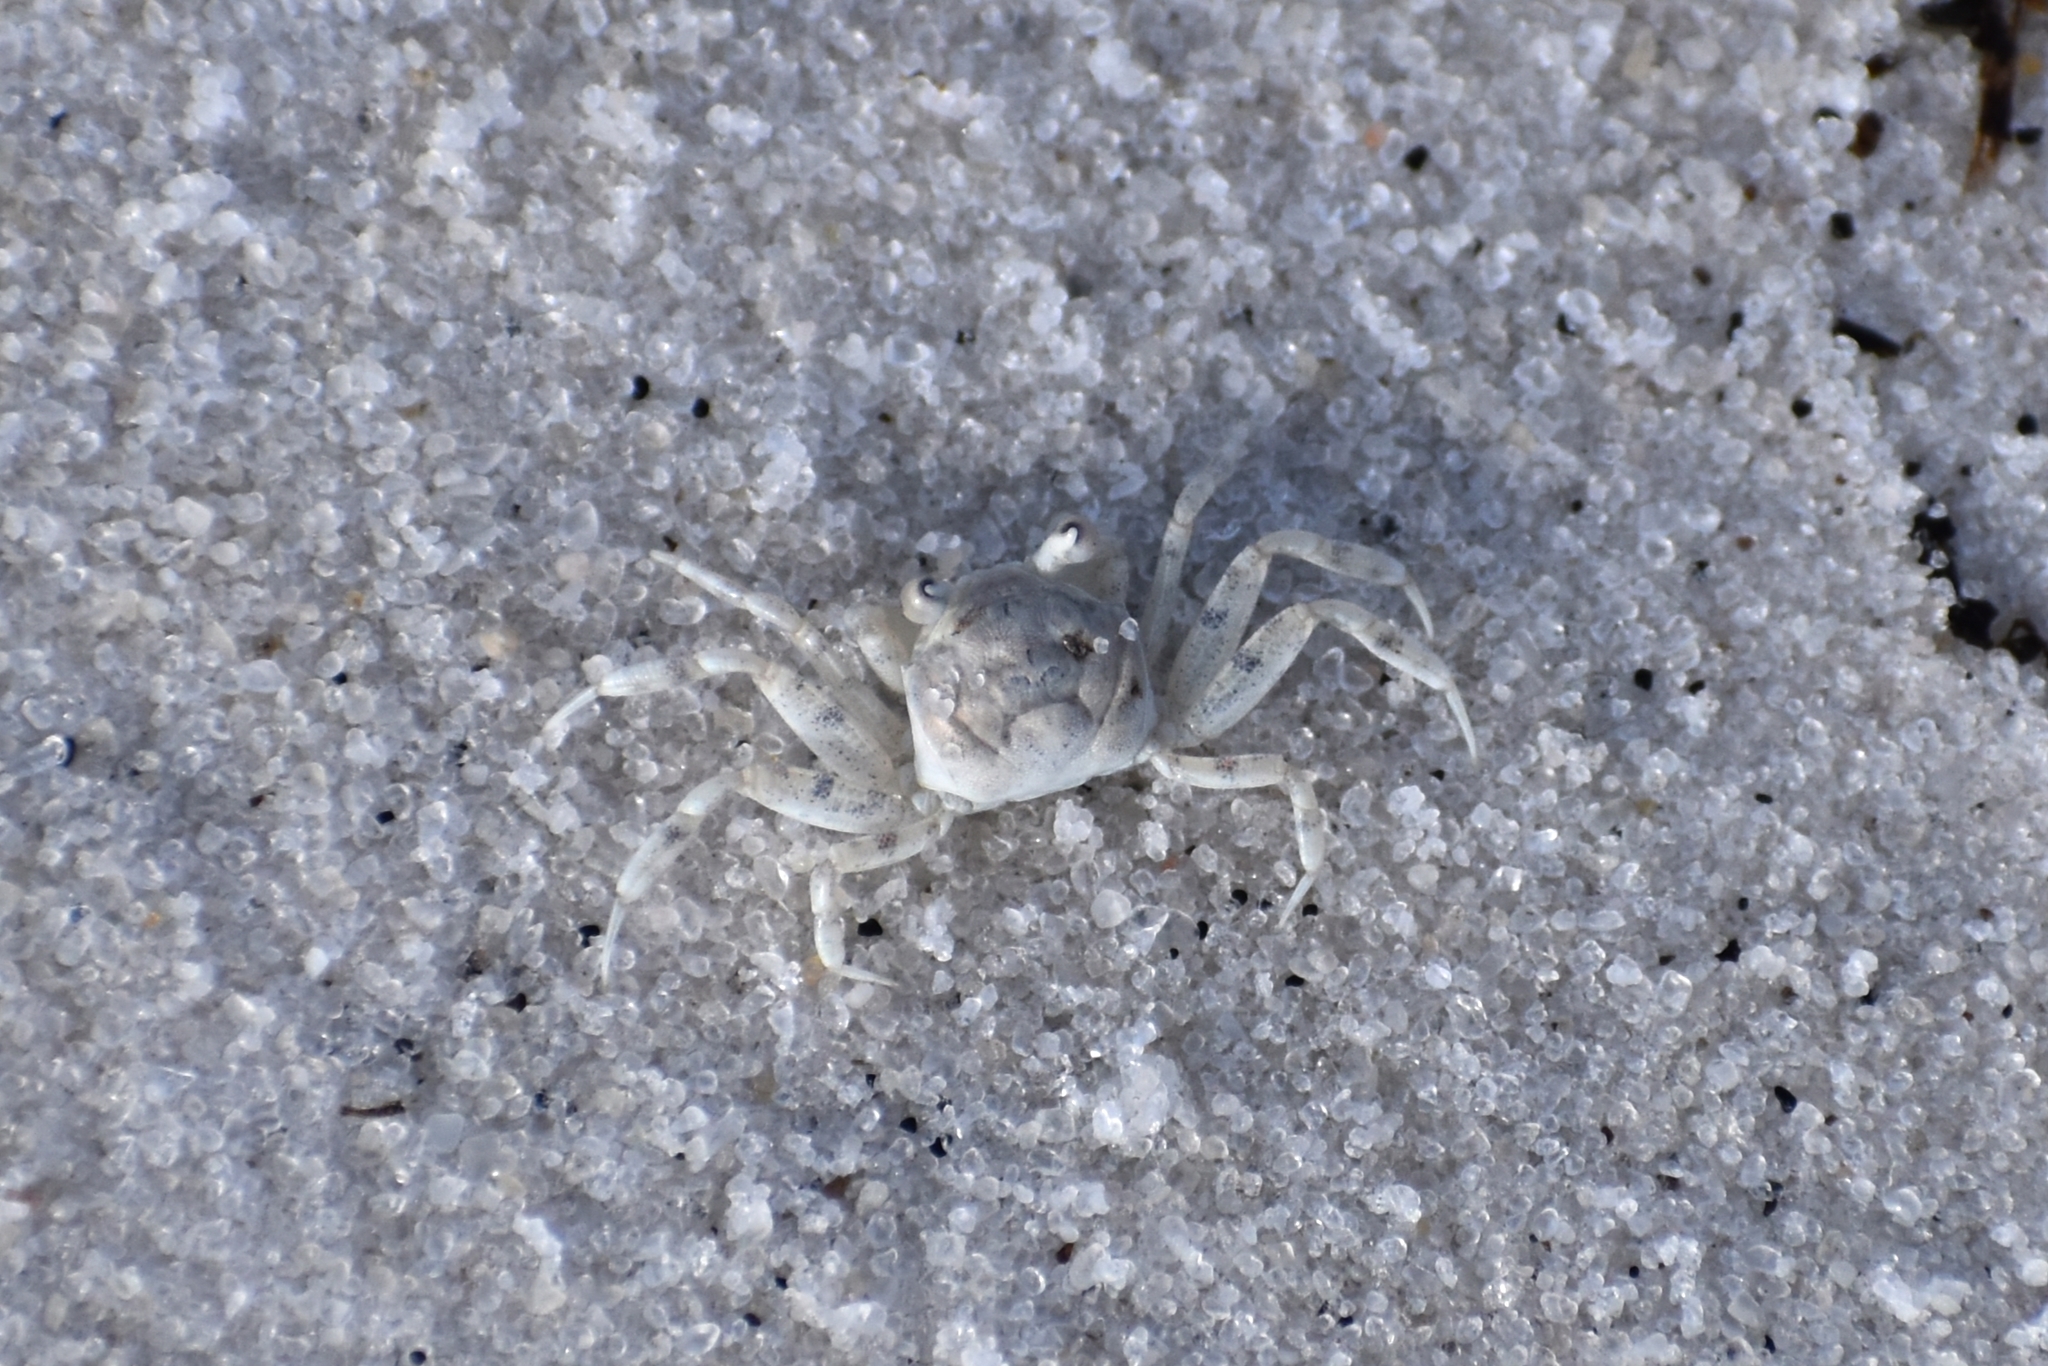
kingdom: Animalia
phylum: Arthropoda
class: Malacostraca
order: Decapoda
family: Ocypodidae
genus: Ocypode
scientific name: Ocypode quadrata
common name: Ghost crab
